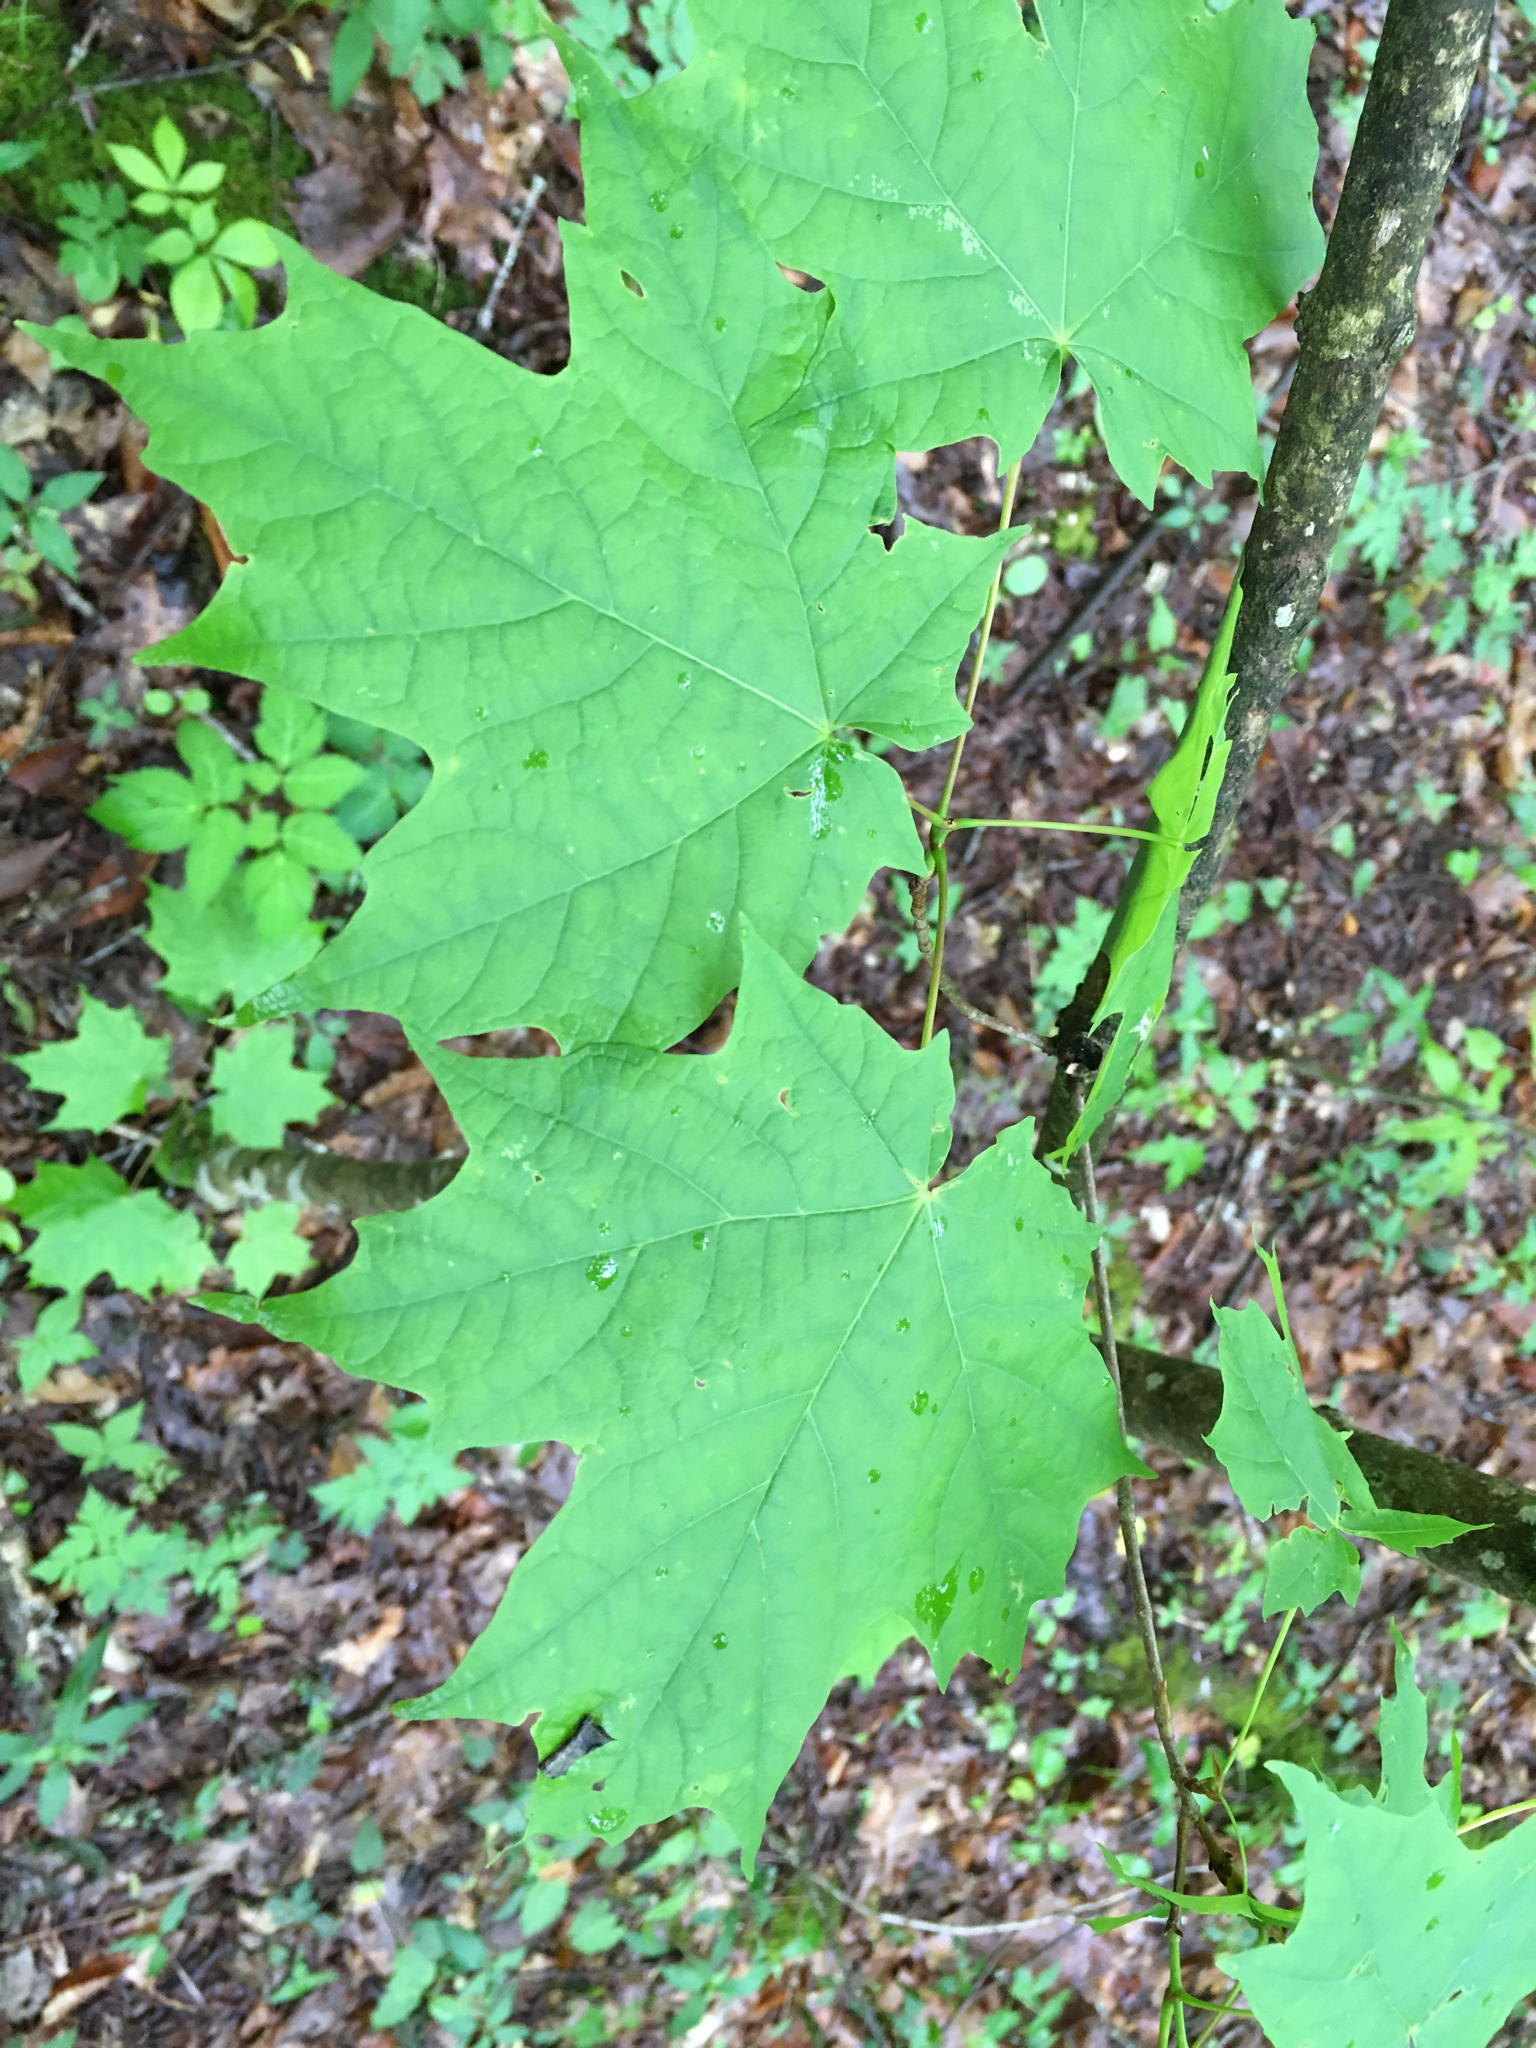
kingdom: Plantae
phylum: Tracheophyta
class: Magnoliopsida
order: Sapindales
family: Sapindaceae
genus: Acer
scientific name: Acer saccharum
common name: Sugar maple
